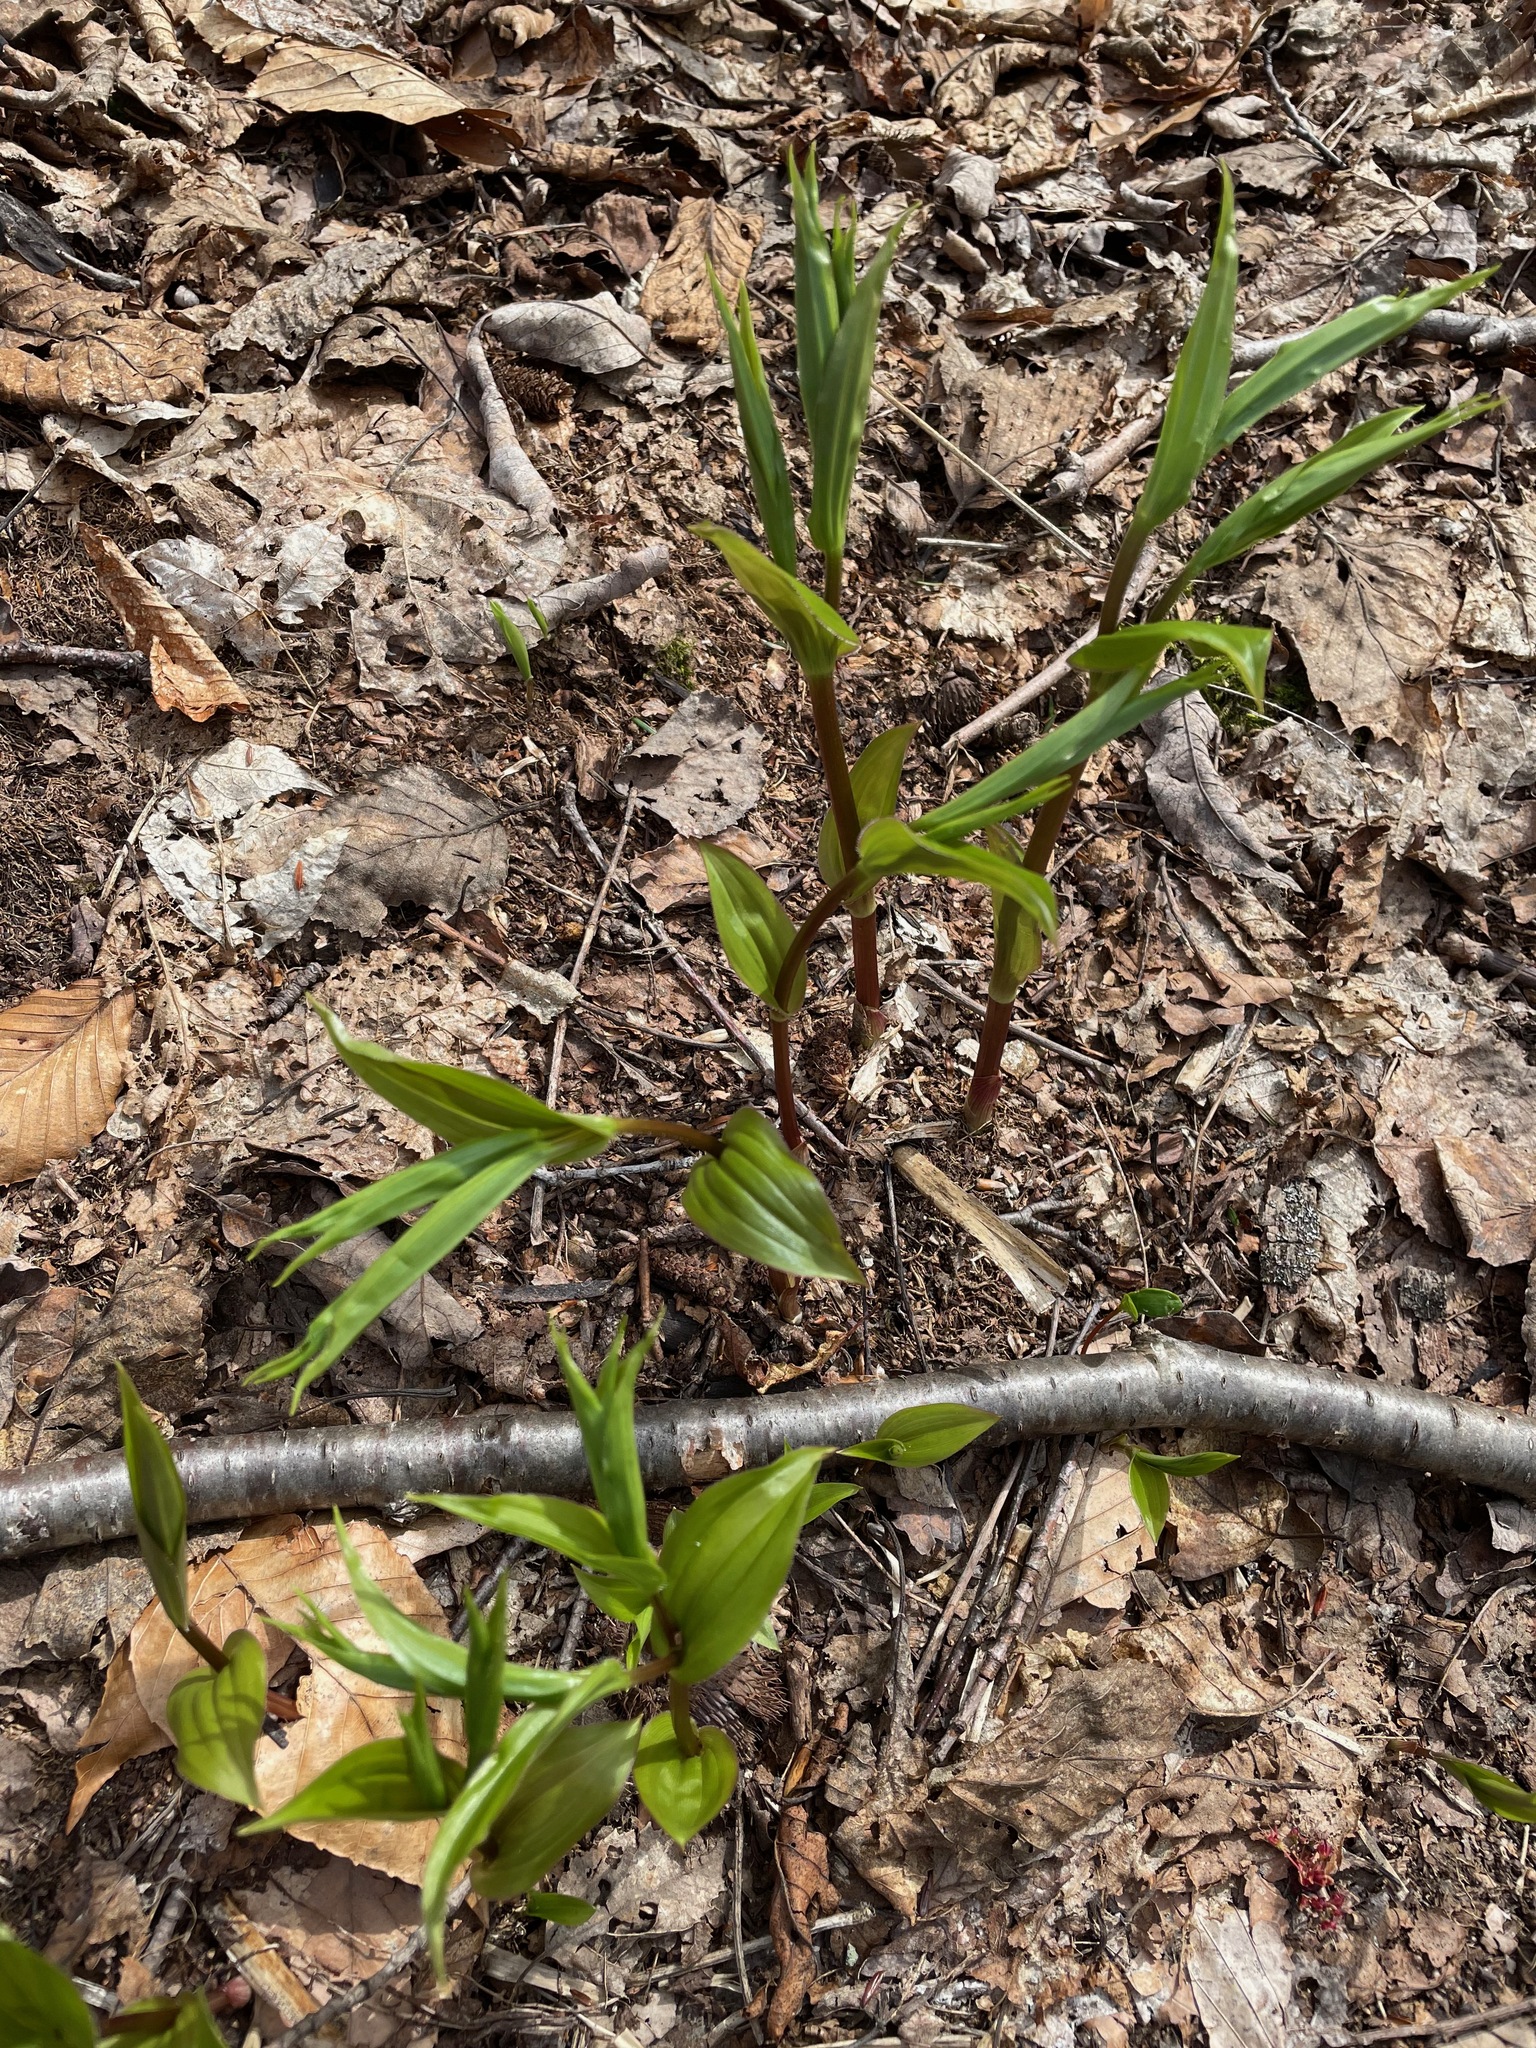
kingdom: Plantae
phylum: Tracheophyta
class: Liliopsida
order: Liliales
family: Liliaceae
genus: Streptopus
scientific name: Streptopus lanceolatus
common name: Rose mandarin
